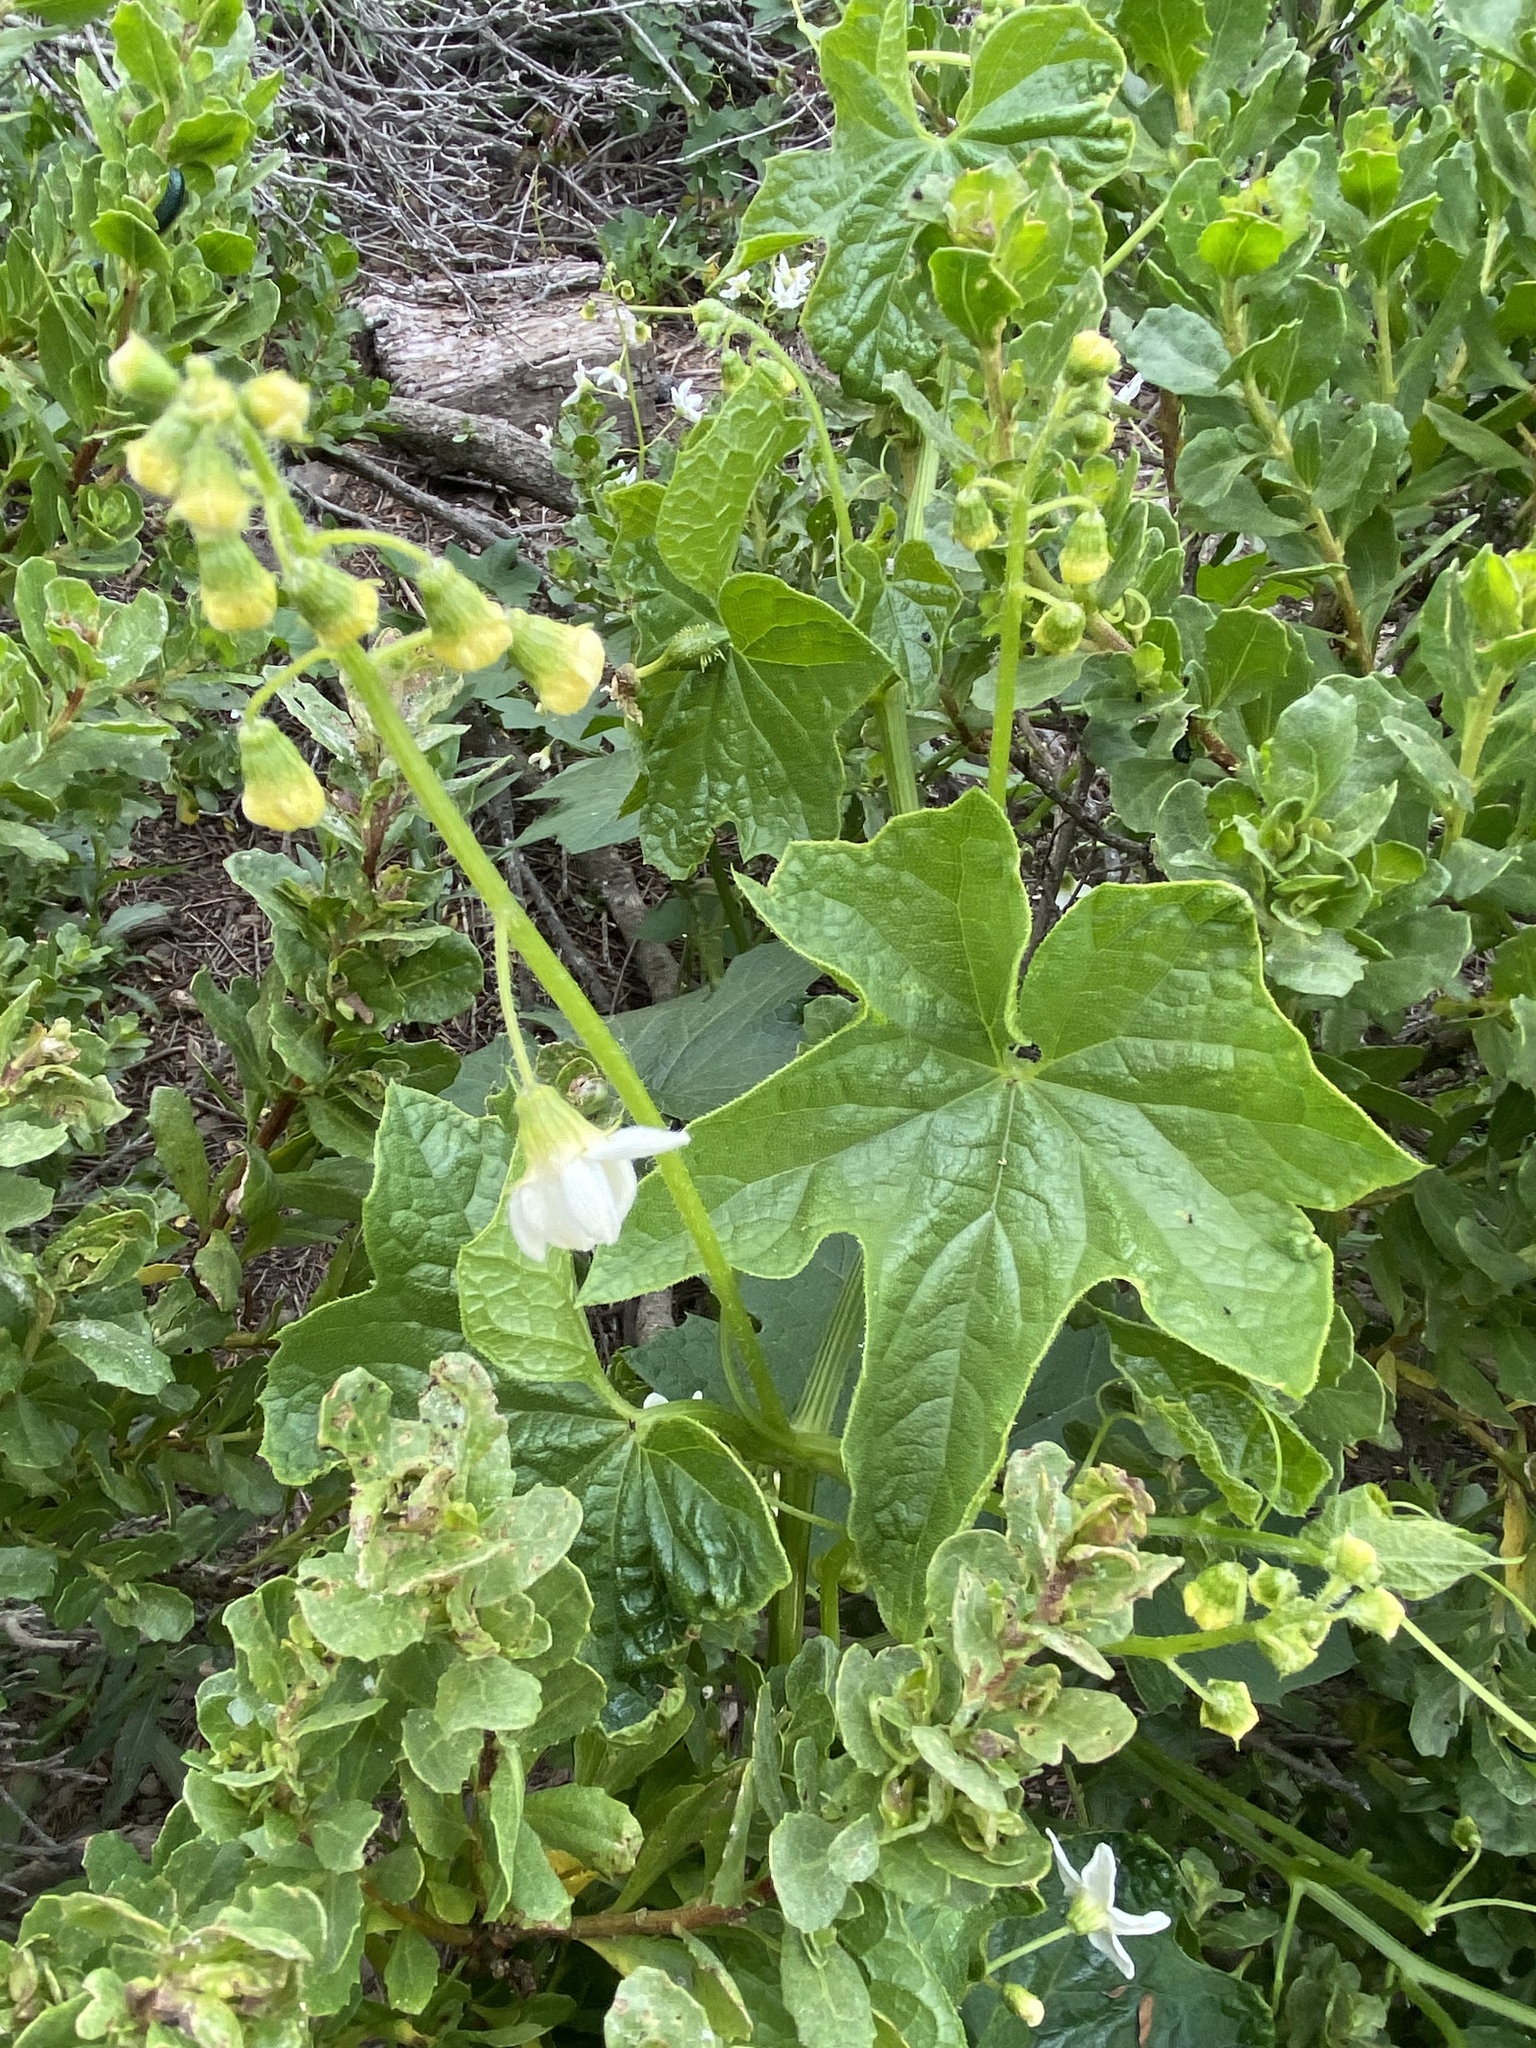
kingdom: Plantae
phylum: Tracheophyta
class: Magnoliopsida
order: Cucurbitales
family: Cucurbitaceae
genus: Marah
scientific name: Marah oregana
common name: Coastal manroot
